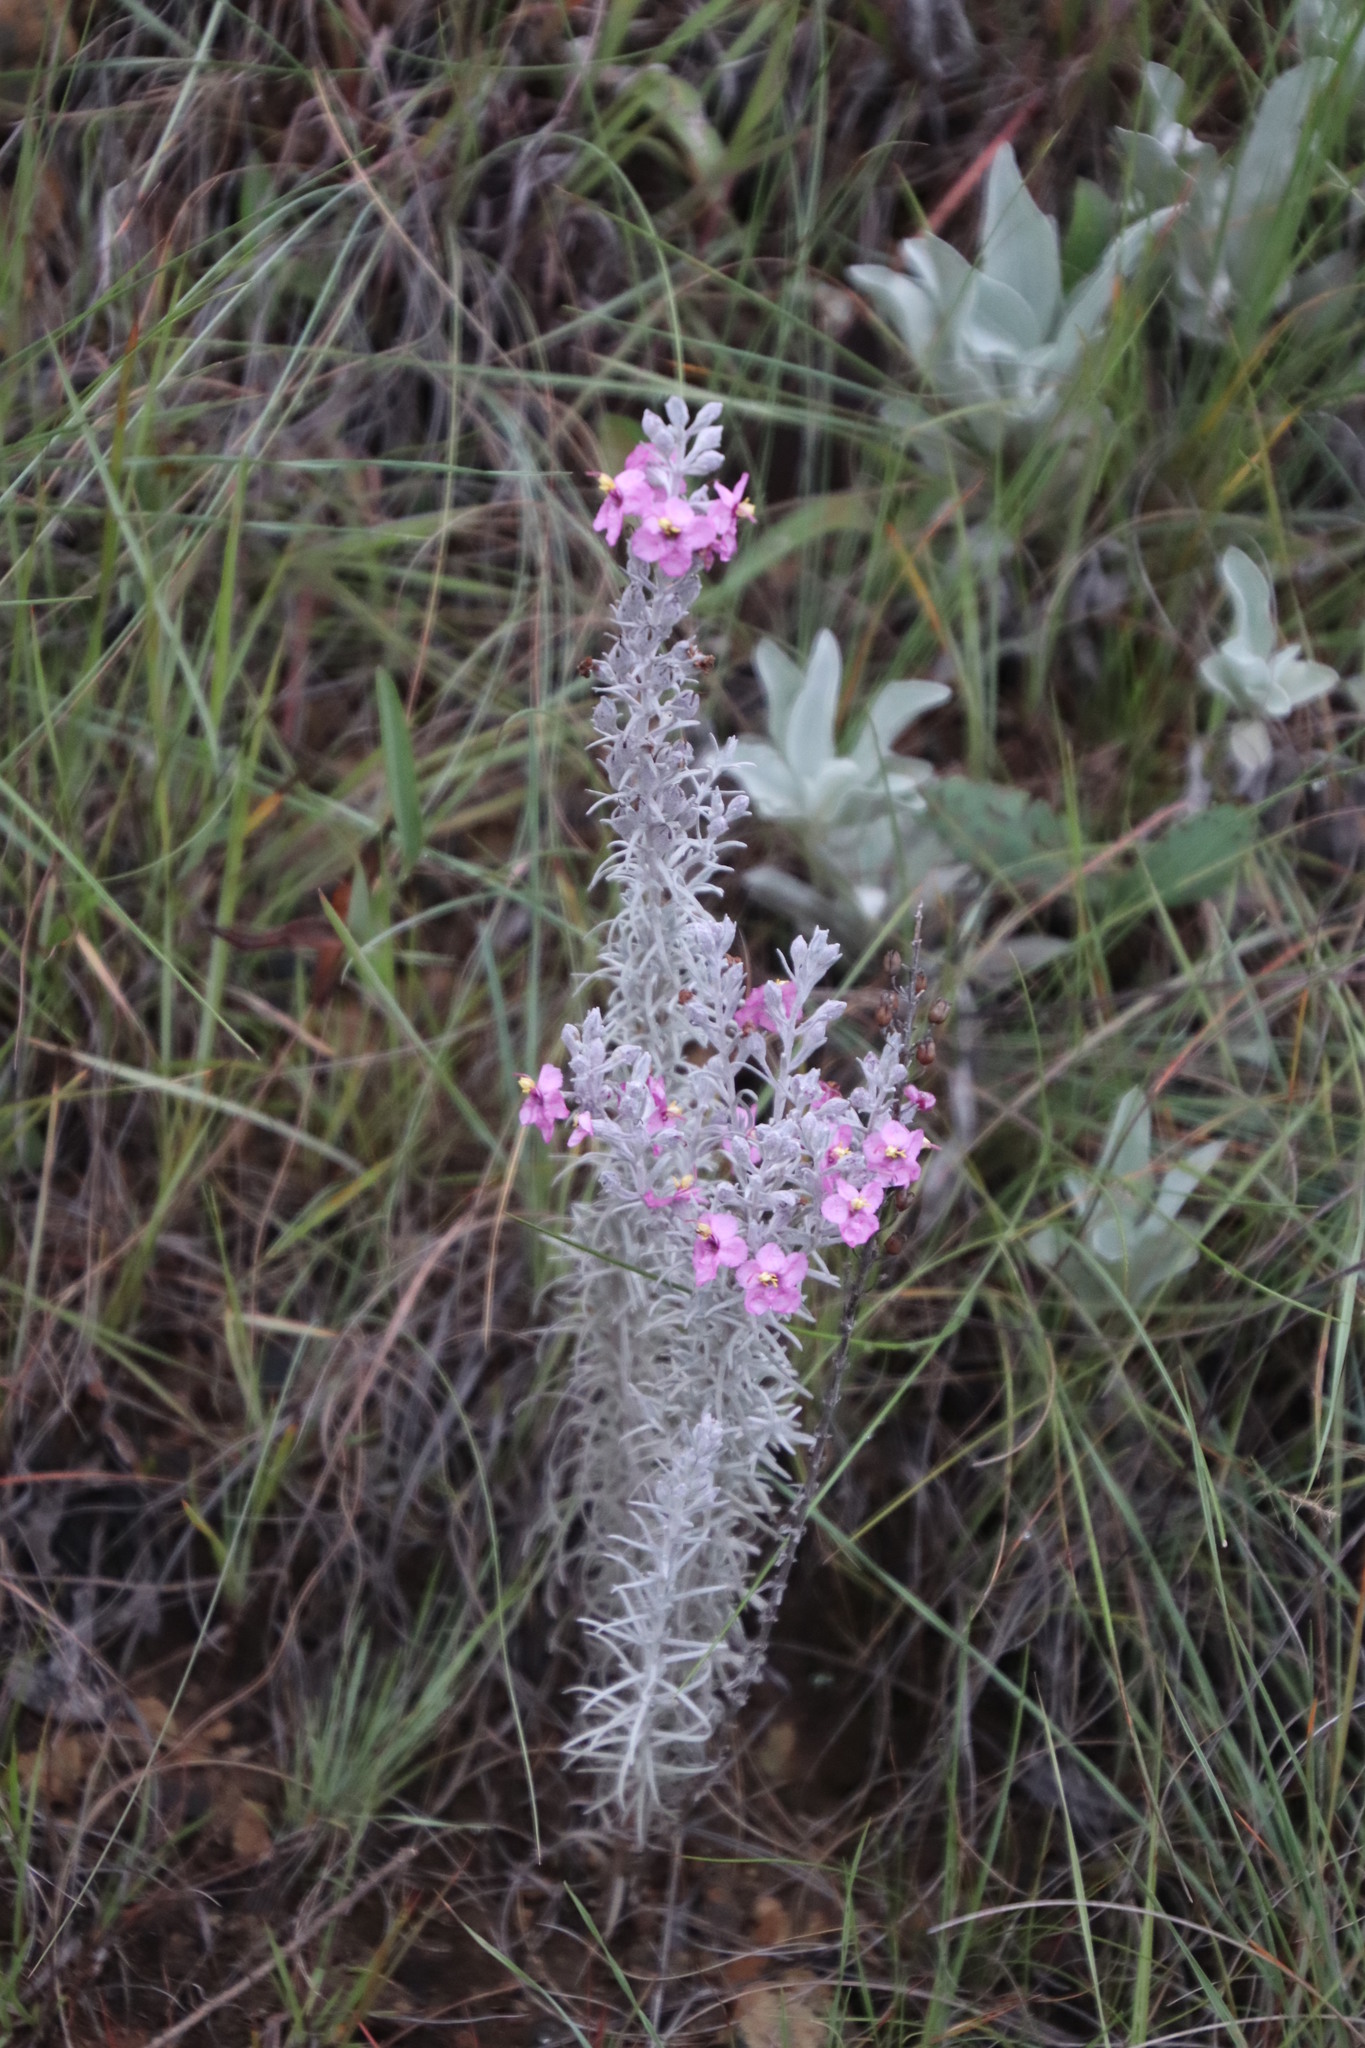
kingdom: Plantae
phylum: Tracheophyta
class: Magnoliopsida
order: Lamiales
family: Orobanchaceae
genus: Sopubia
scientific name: Sopubia cana
